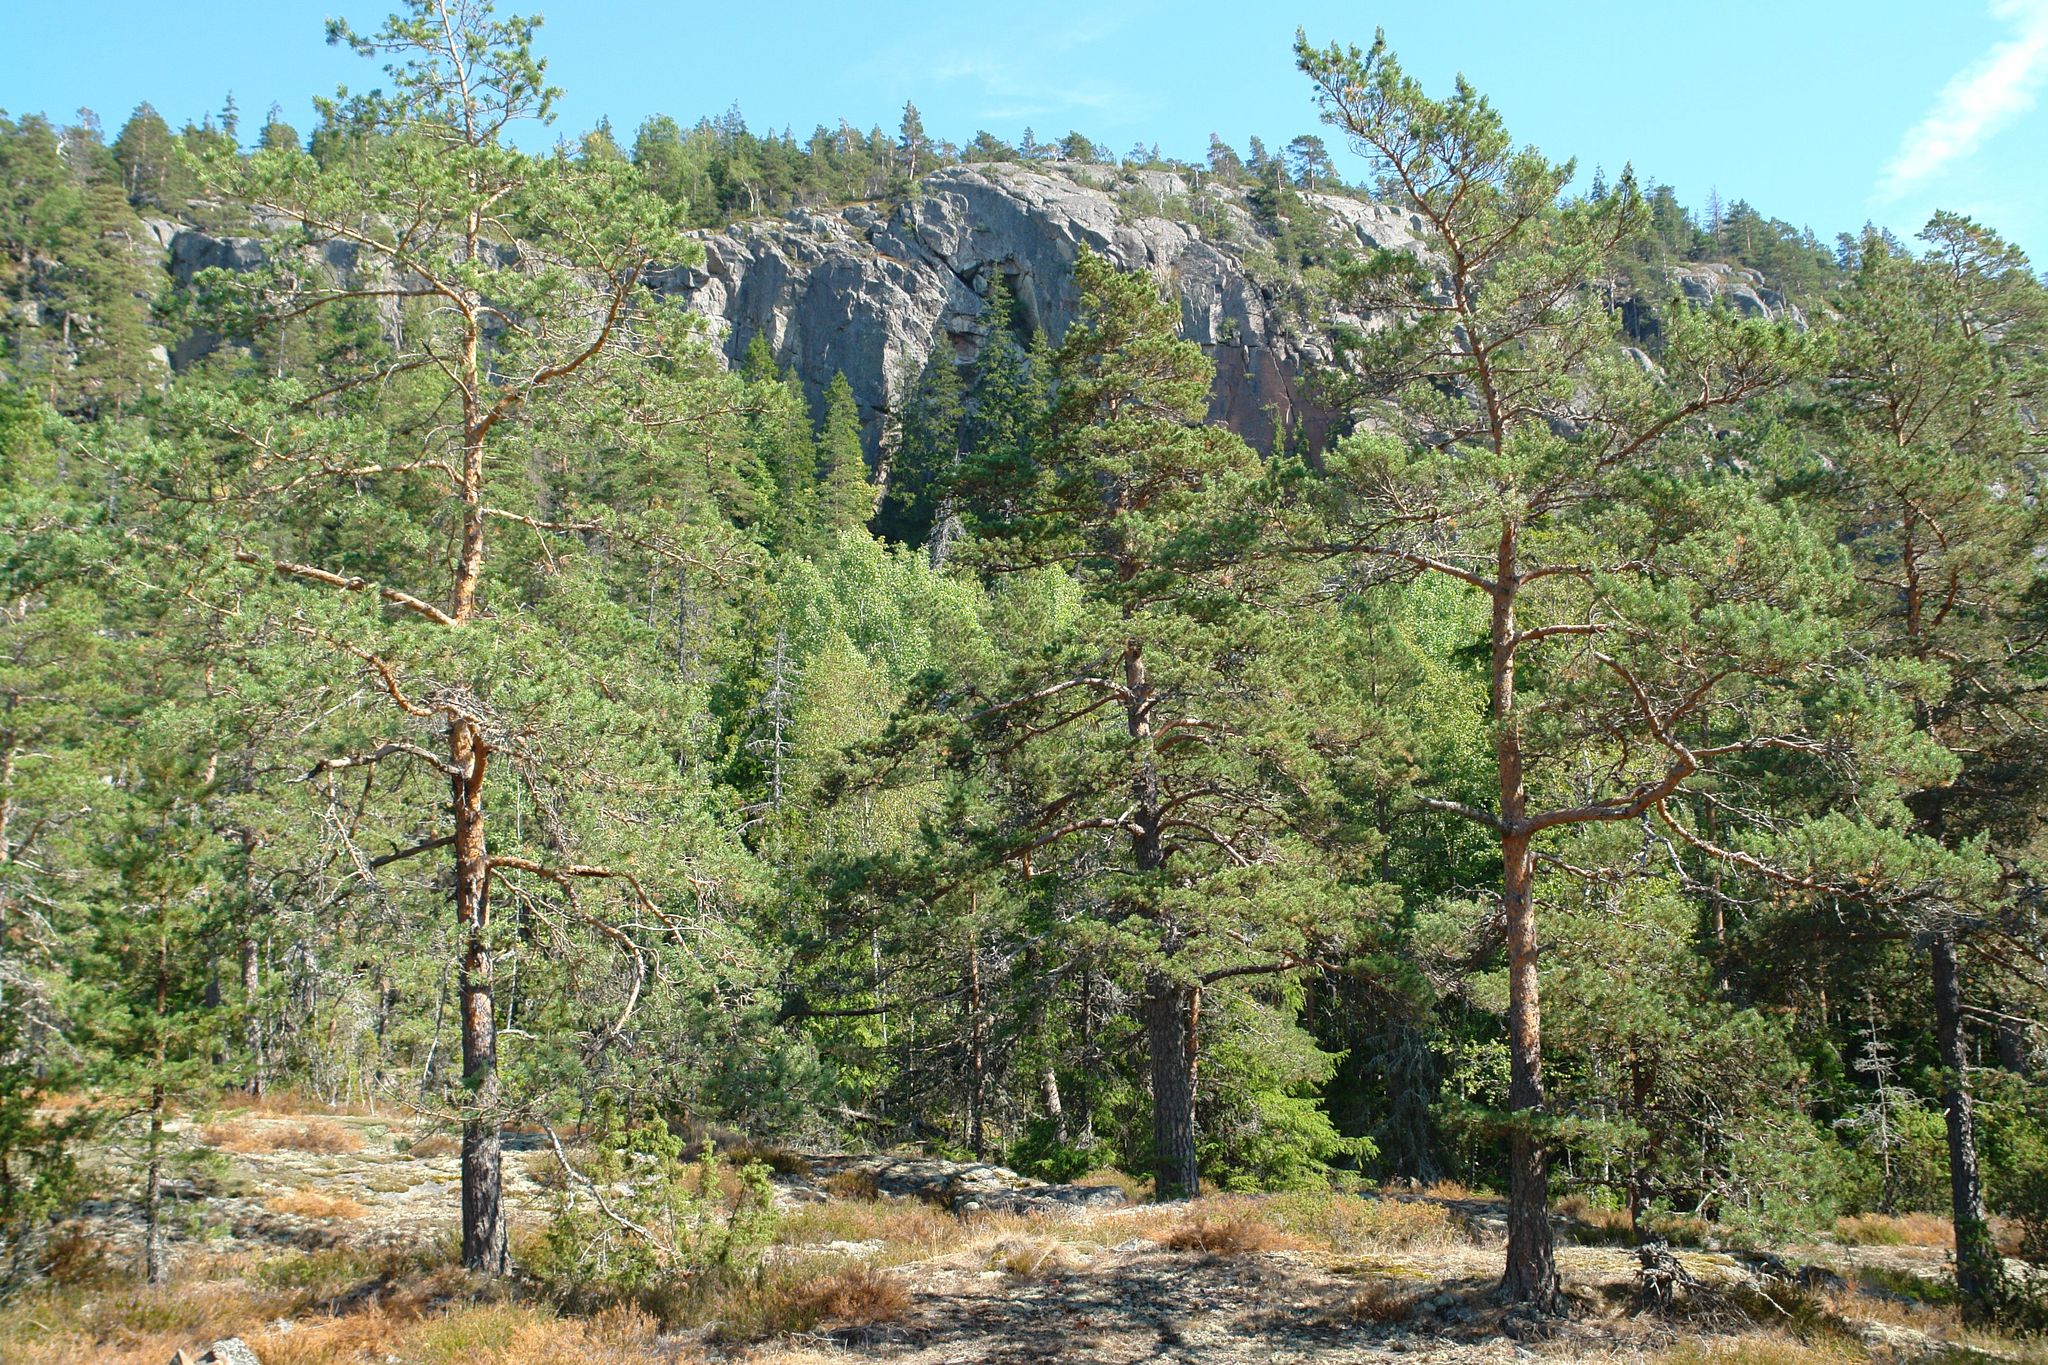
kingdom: Plantae
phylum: Tracheophyta
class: Pinopsida
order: Pinales
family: Pinaceae
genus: Pinus
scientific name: Pinus sylvestris
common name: Scots pine
